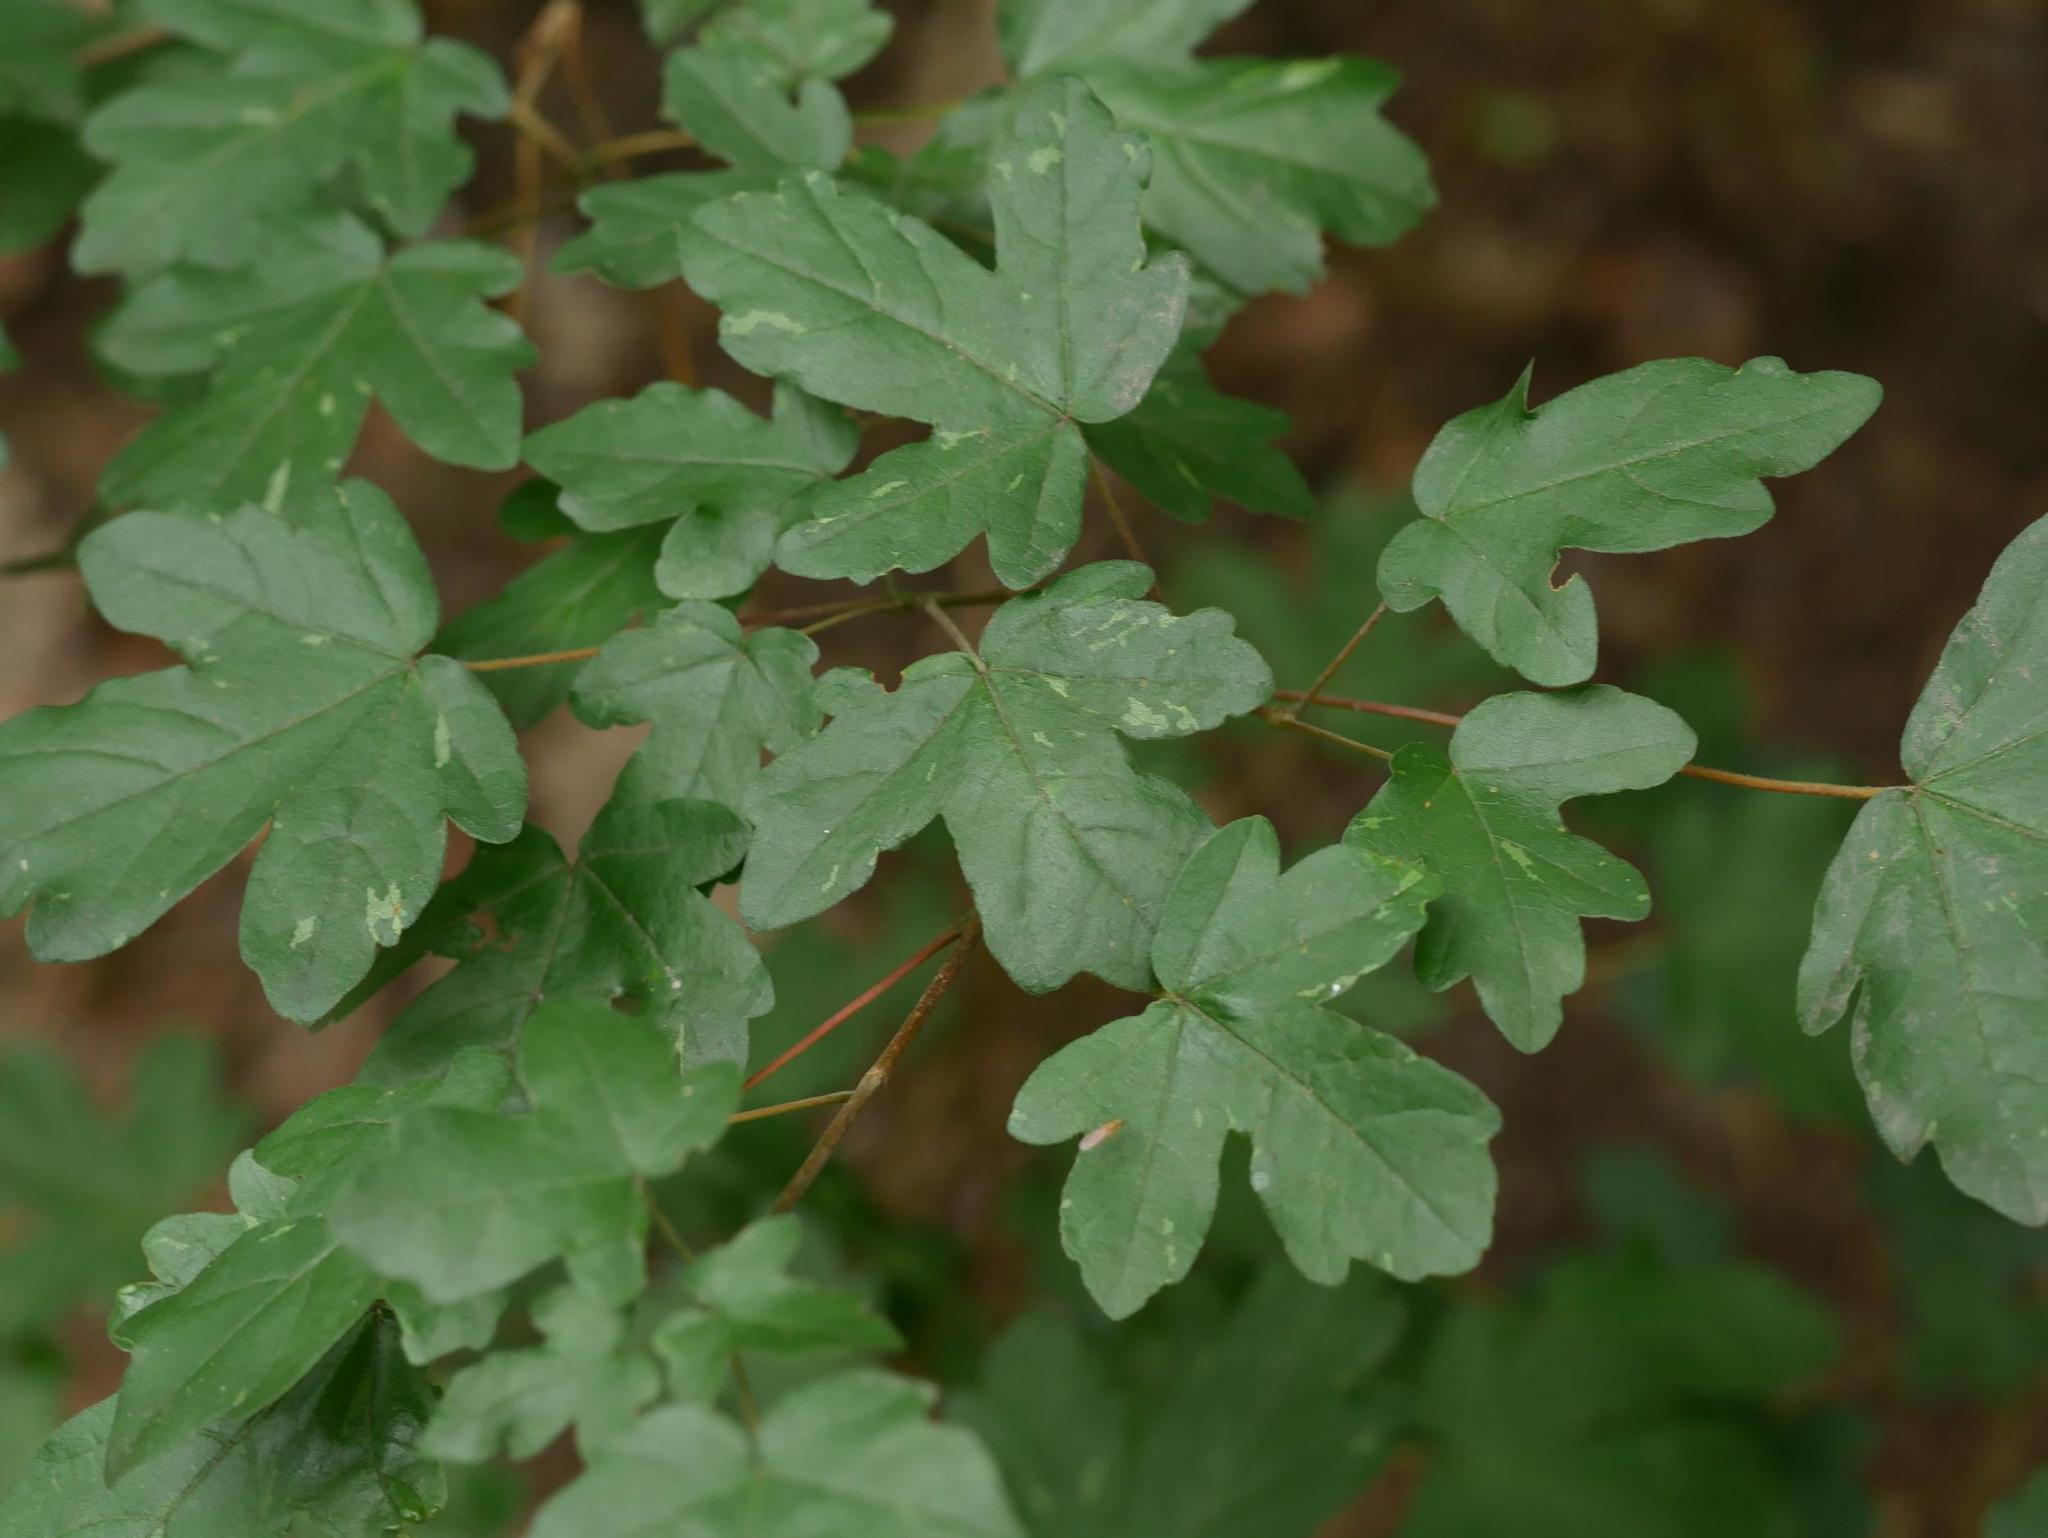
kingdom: Plantae
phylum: Tracheophyta
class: Magnoliopsida
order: Sapindales
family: Sapindaceae
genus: Acer
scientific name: Acer campestre
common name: Field maple
